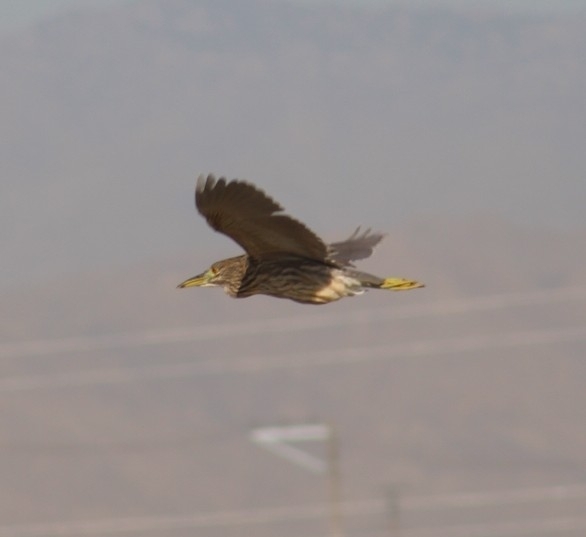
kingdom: Animalia
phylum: Chordata
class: Aves
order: Pelecaniformes
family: Ardeidae
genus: Nycticorax
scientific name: Nycticorax nycticorax
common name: Black-crowned night heron
